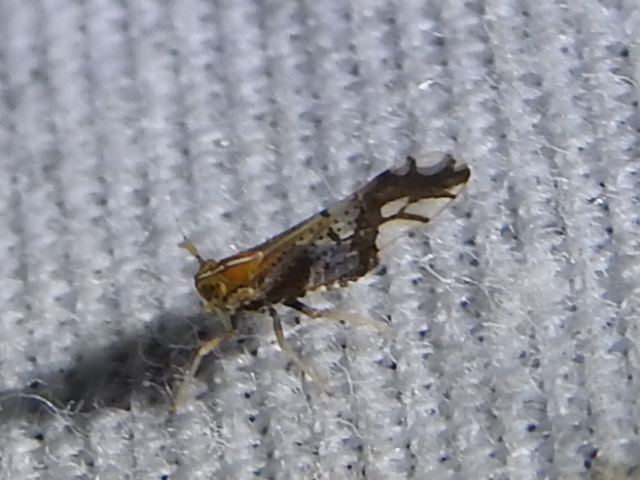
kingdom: Animalia
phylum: Arthropoda
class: Insecta
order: Hemiptera
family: Delphacidae
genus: Liburniella
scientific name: Liburniella ornata
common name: Ornate planthopper
